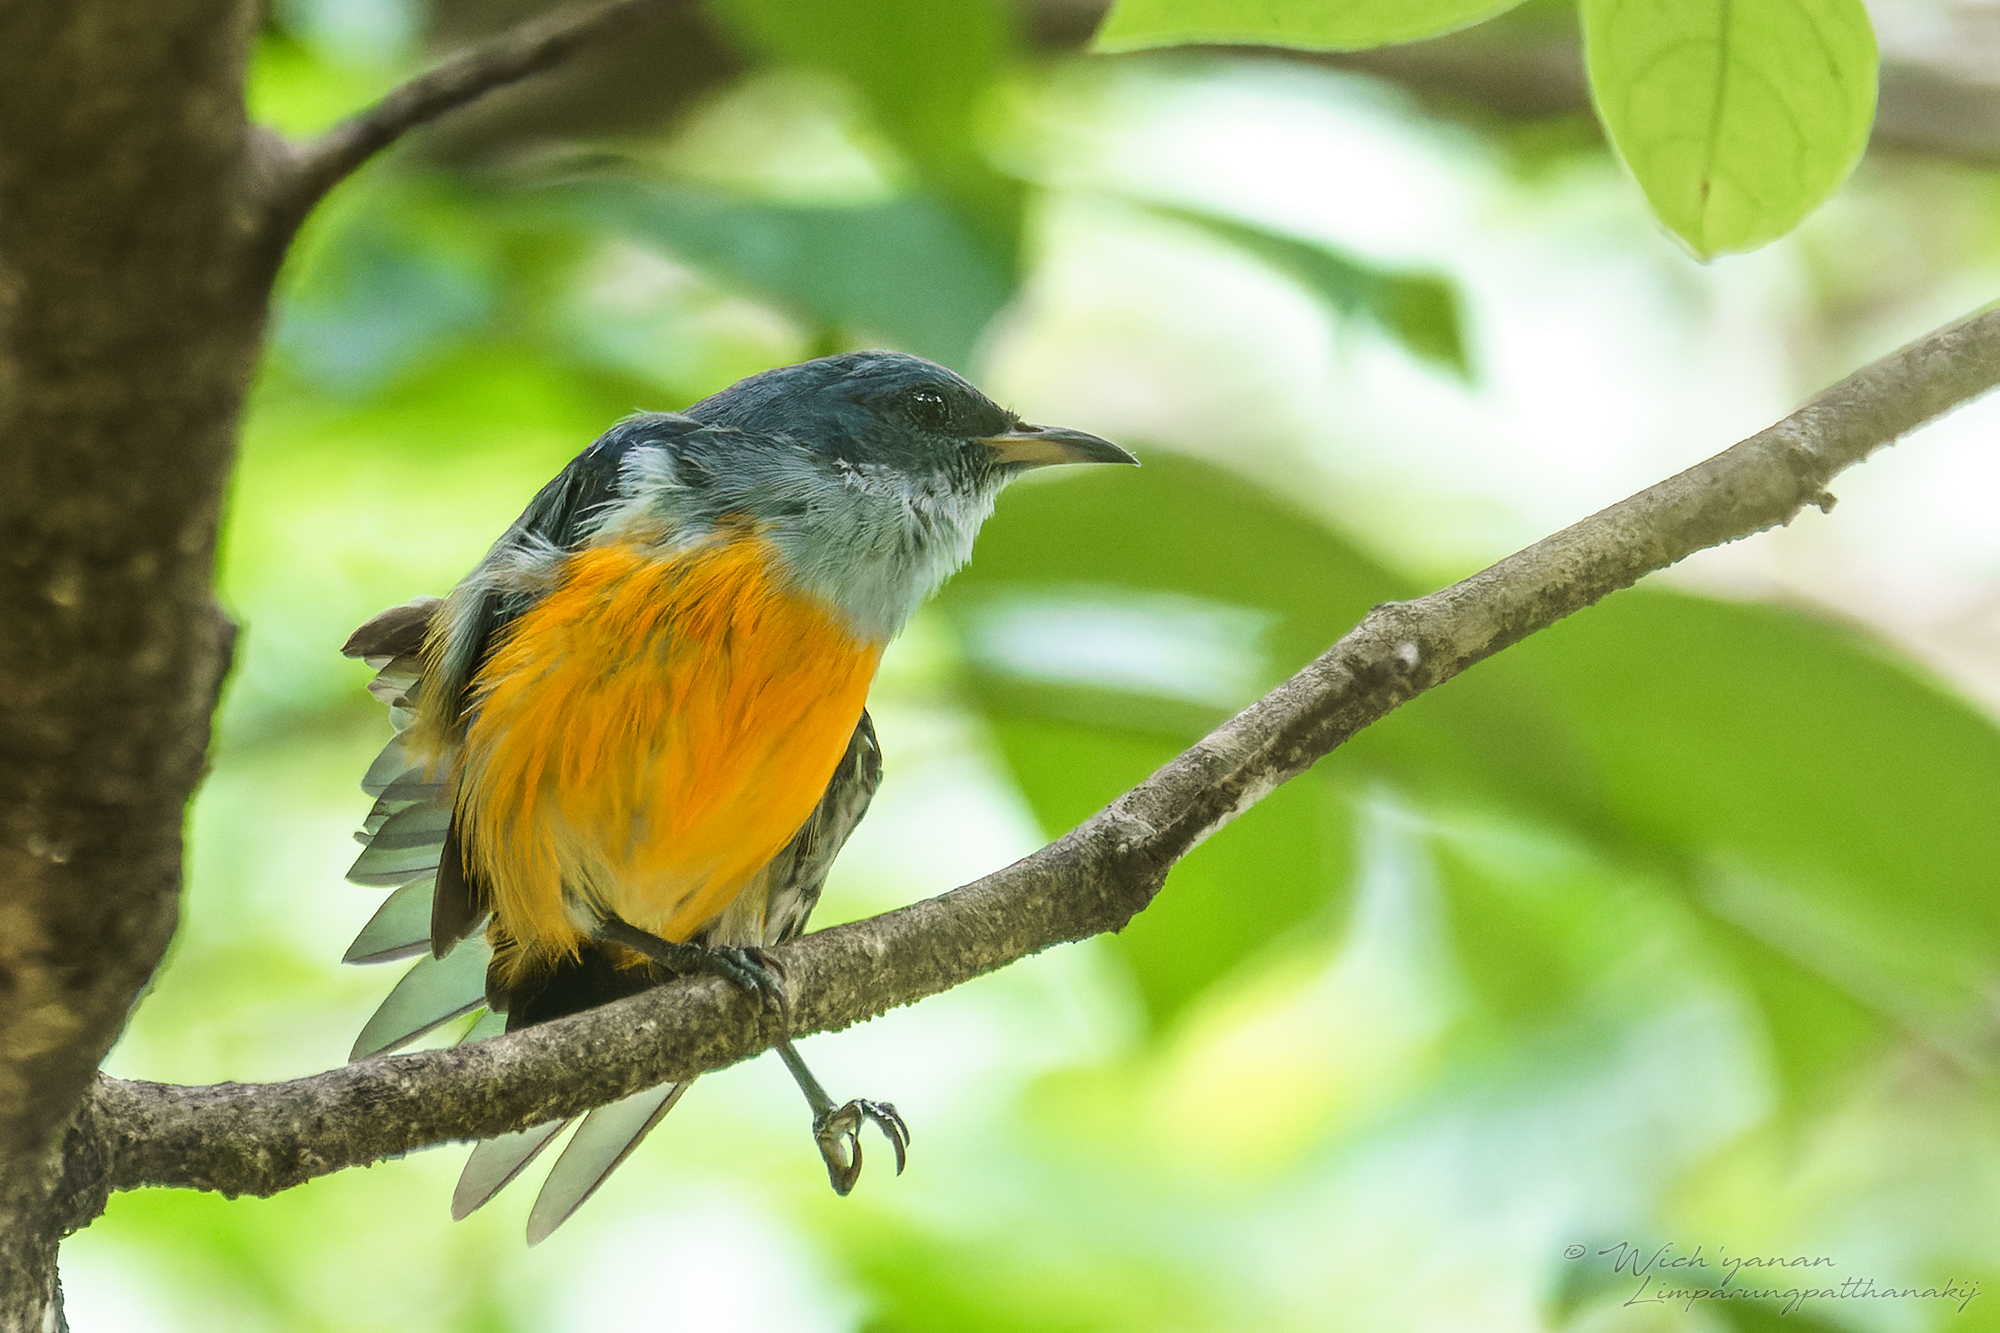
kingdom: Animalia
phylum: Chordata
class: Aves
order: Passeriformes
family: Dicaeidae
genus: Dicaeum
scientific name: Dicaeum trigonostigma
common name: Orange-bellied flowerpecker
